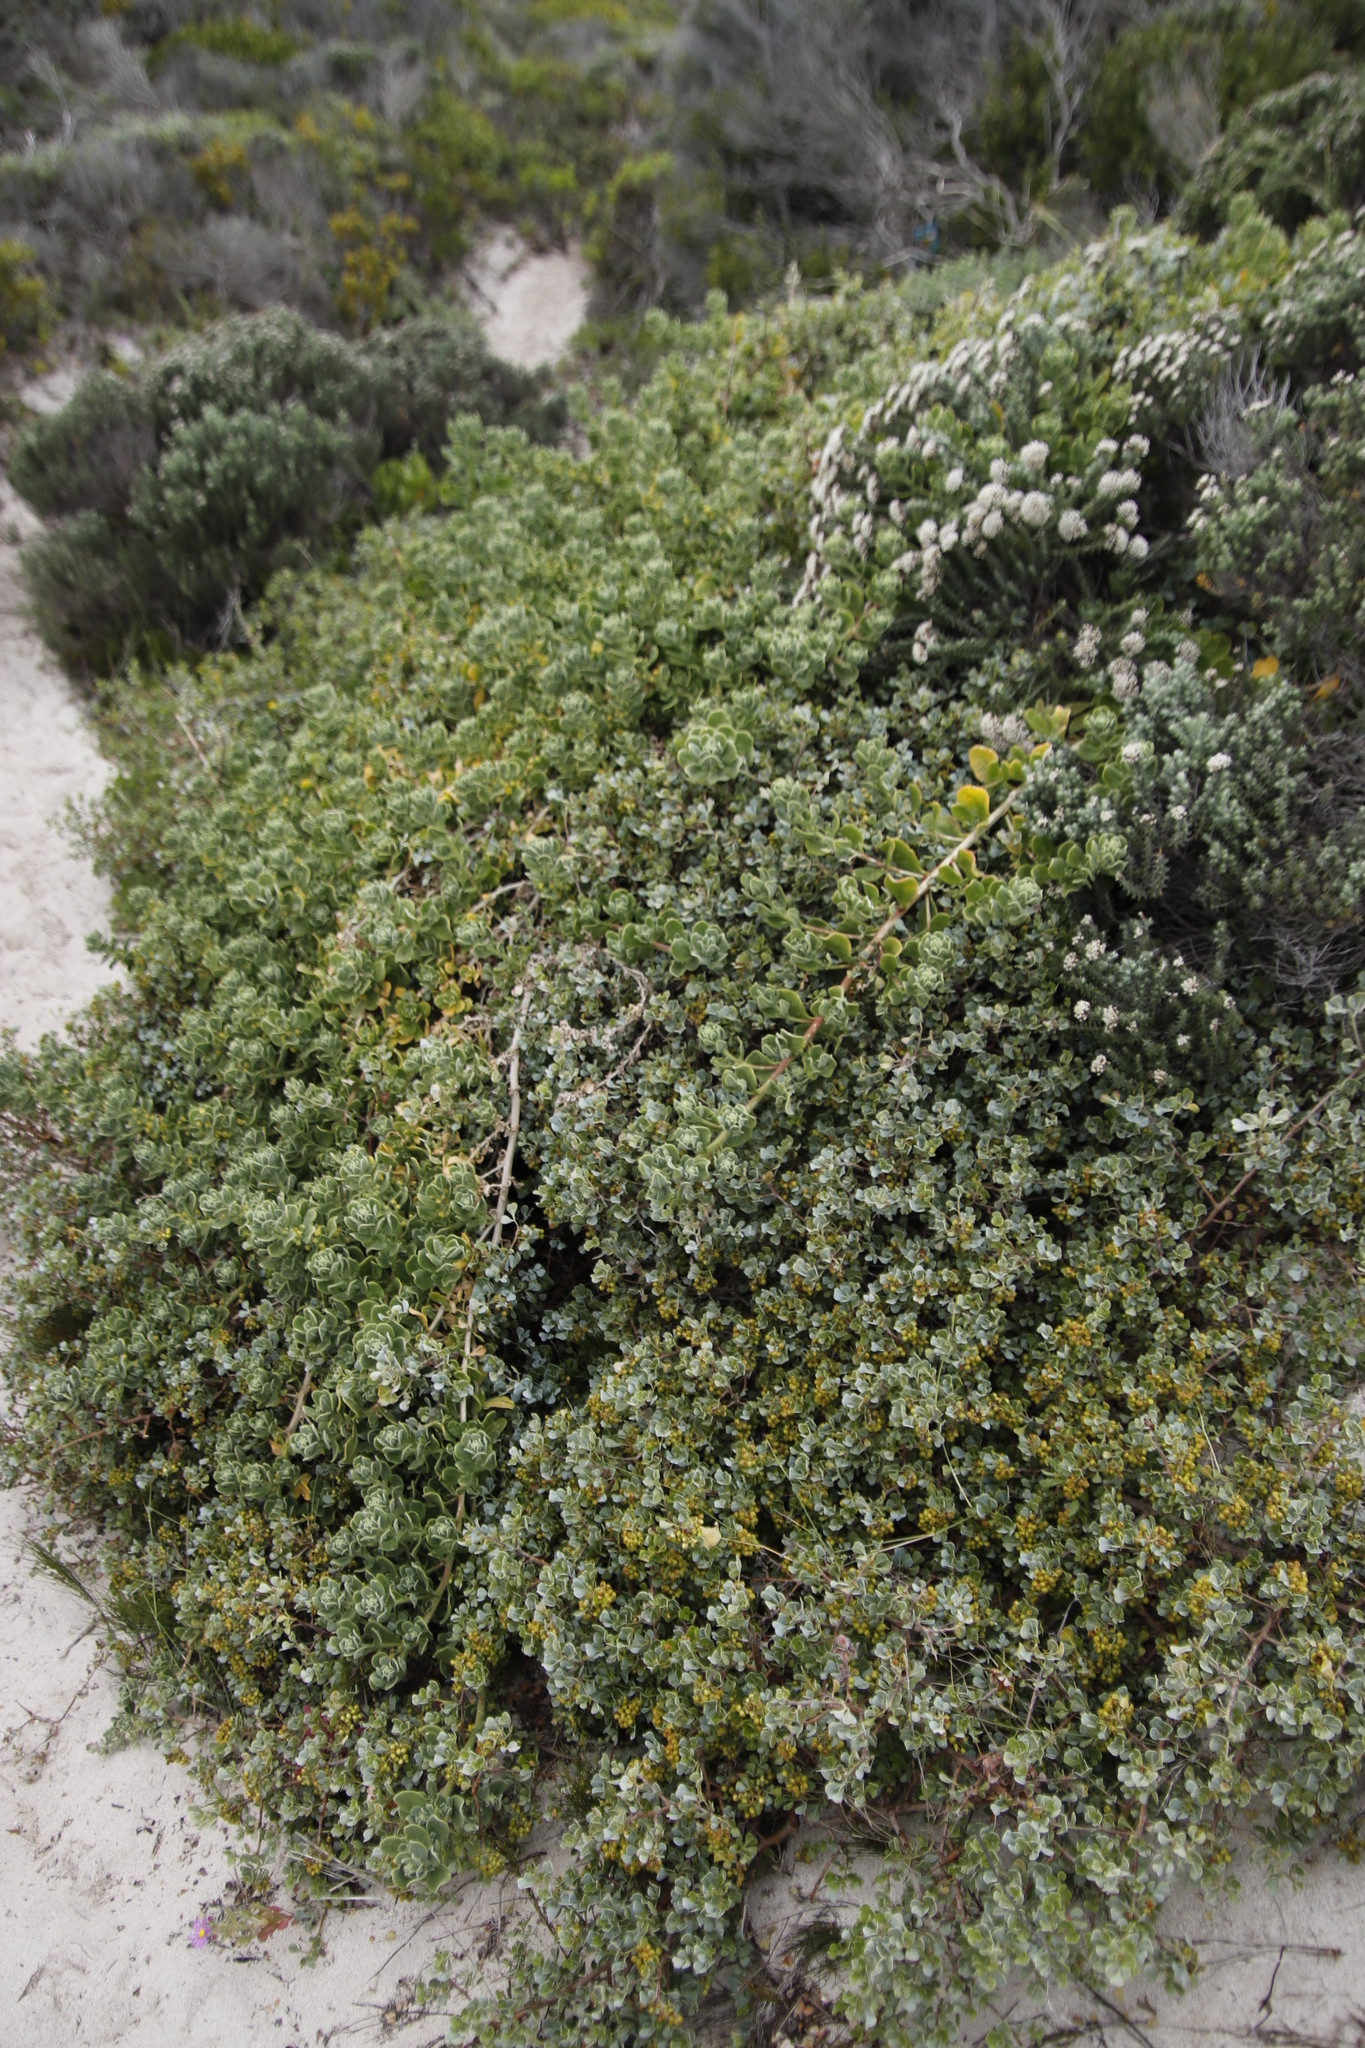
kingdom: Plantae
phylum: Tracheophyta
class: Magnoliopsida
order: Sapindales
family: Anacardiaceae
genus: Searsia
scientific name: Searsia glauca
